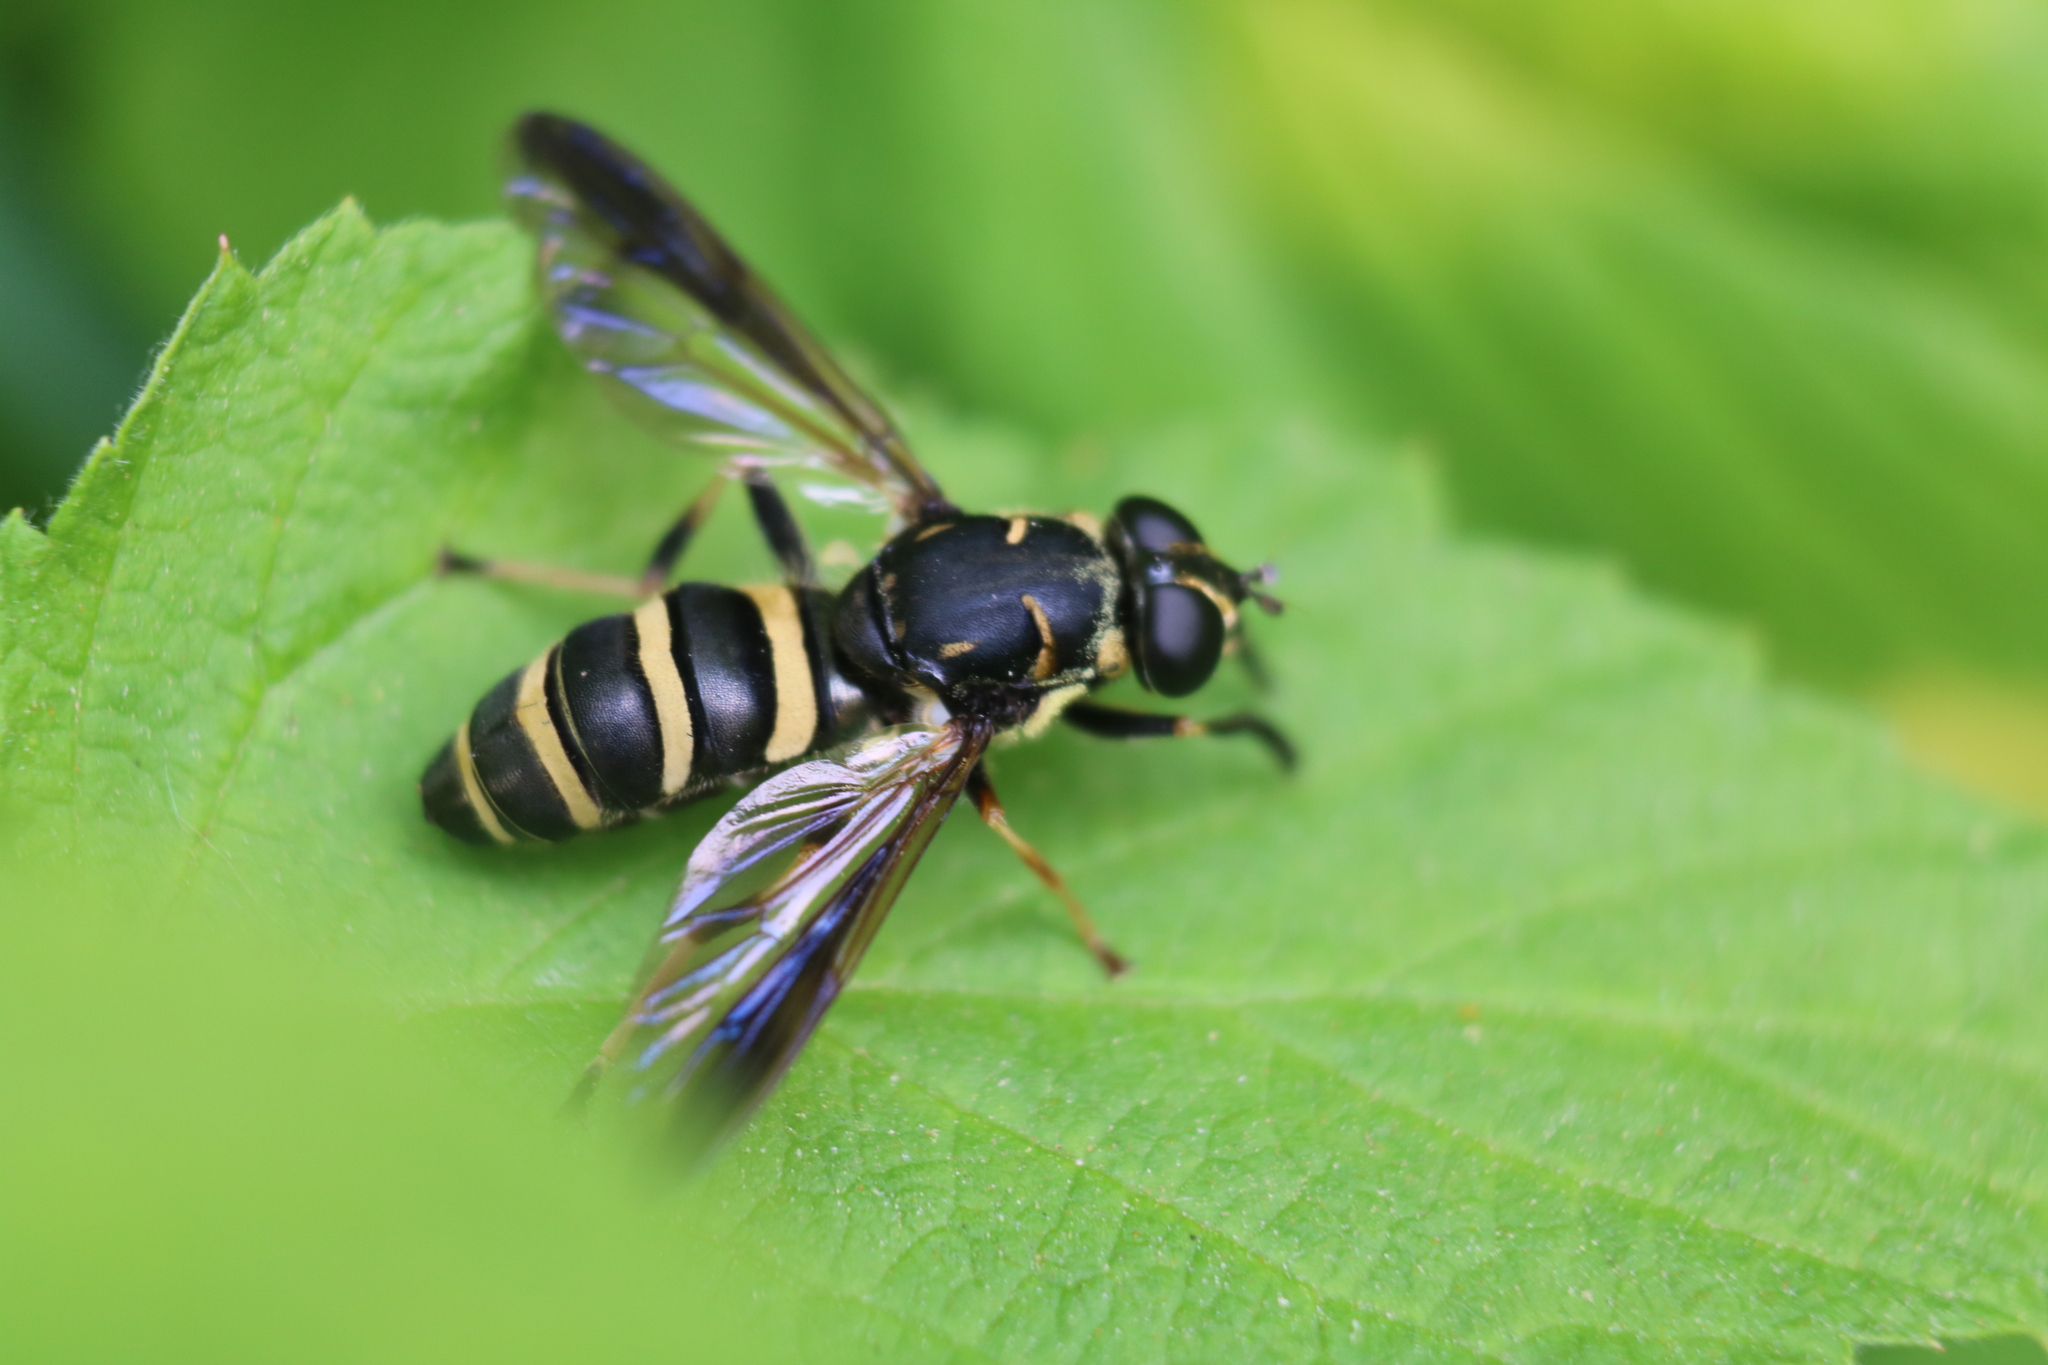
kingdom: Animalia
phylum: Arthropoda
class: Insecta
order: Diptera
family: Syrphidae
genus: Temnostoma
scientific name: Temnostoma barberi
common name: Bare-bellied falsehorn
